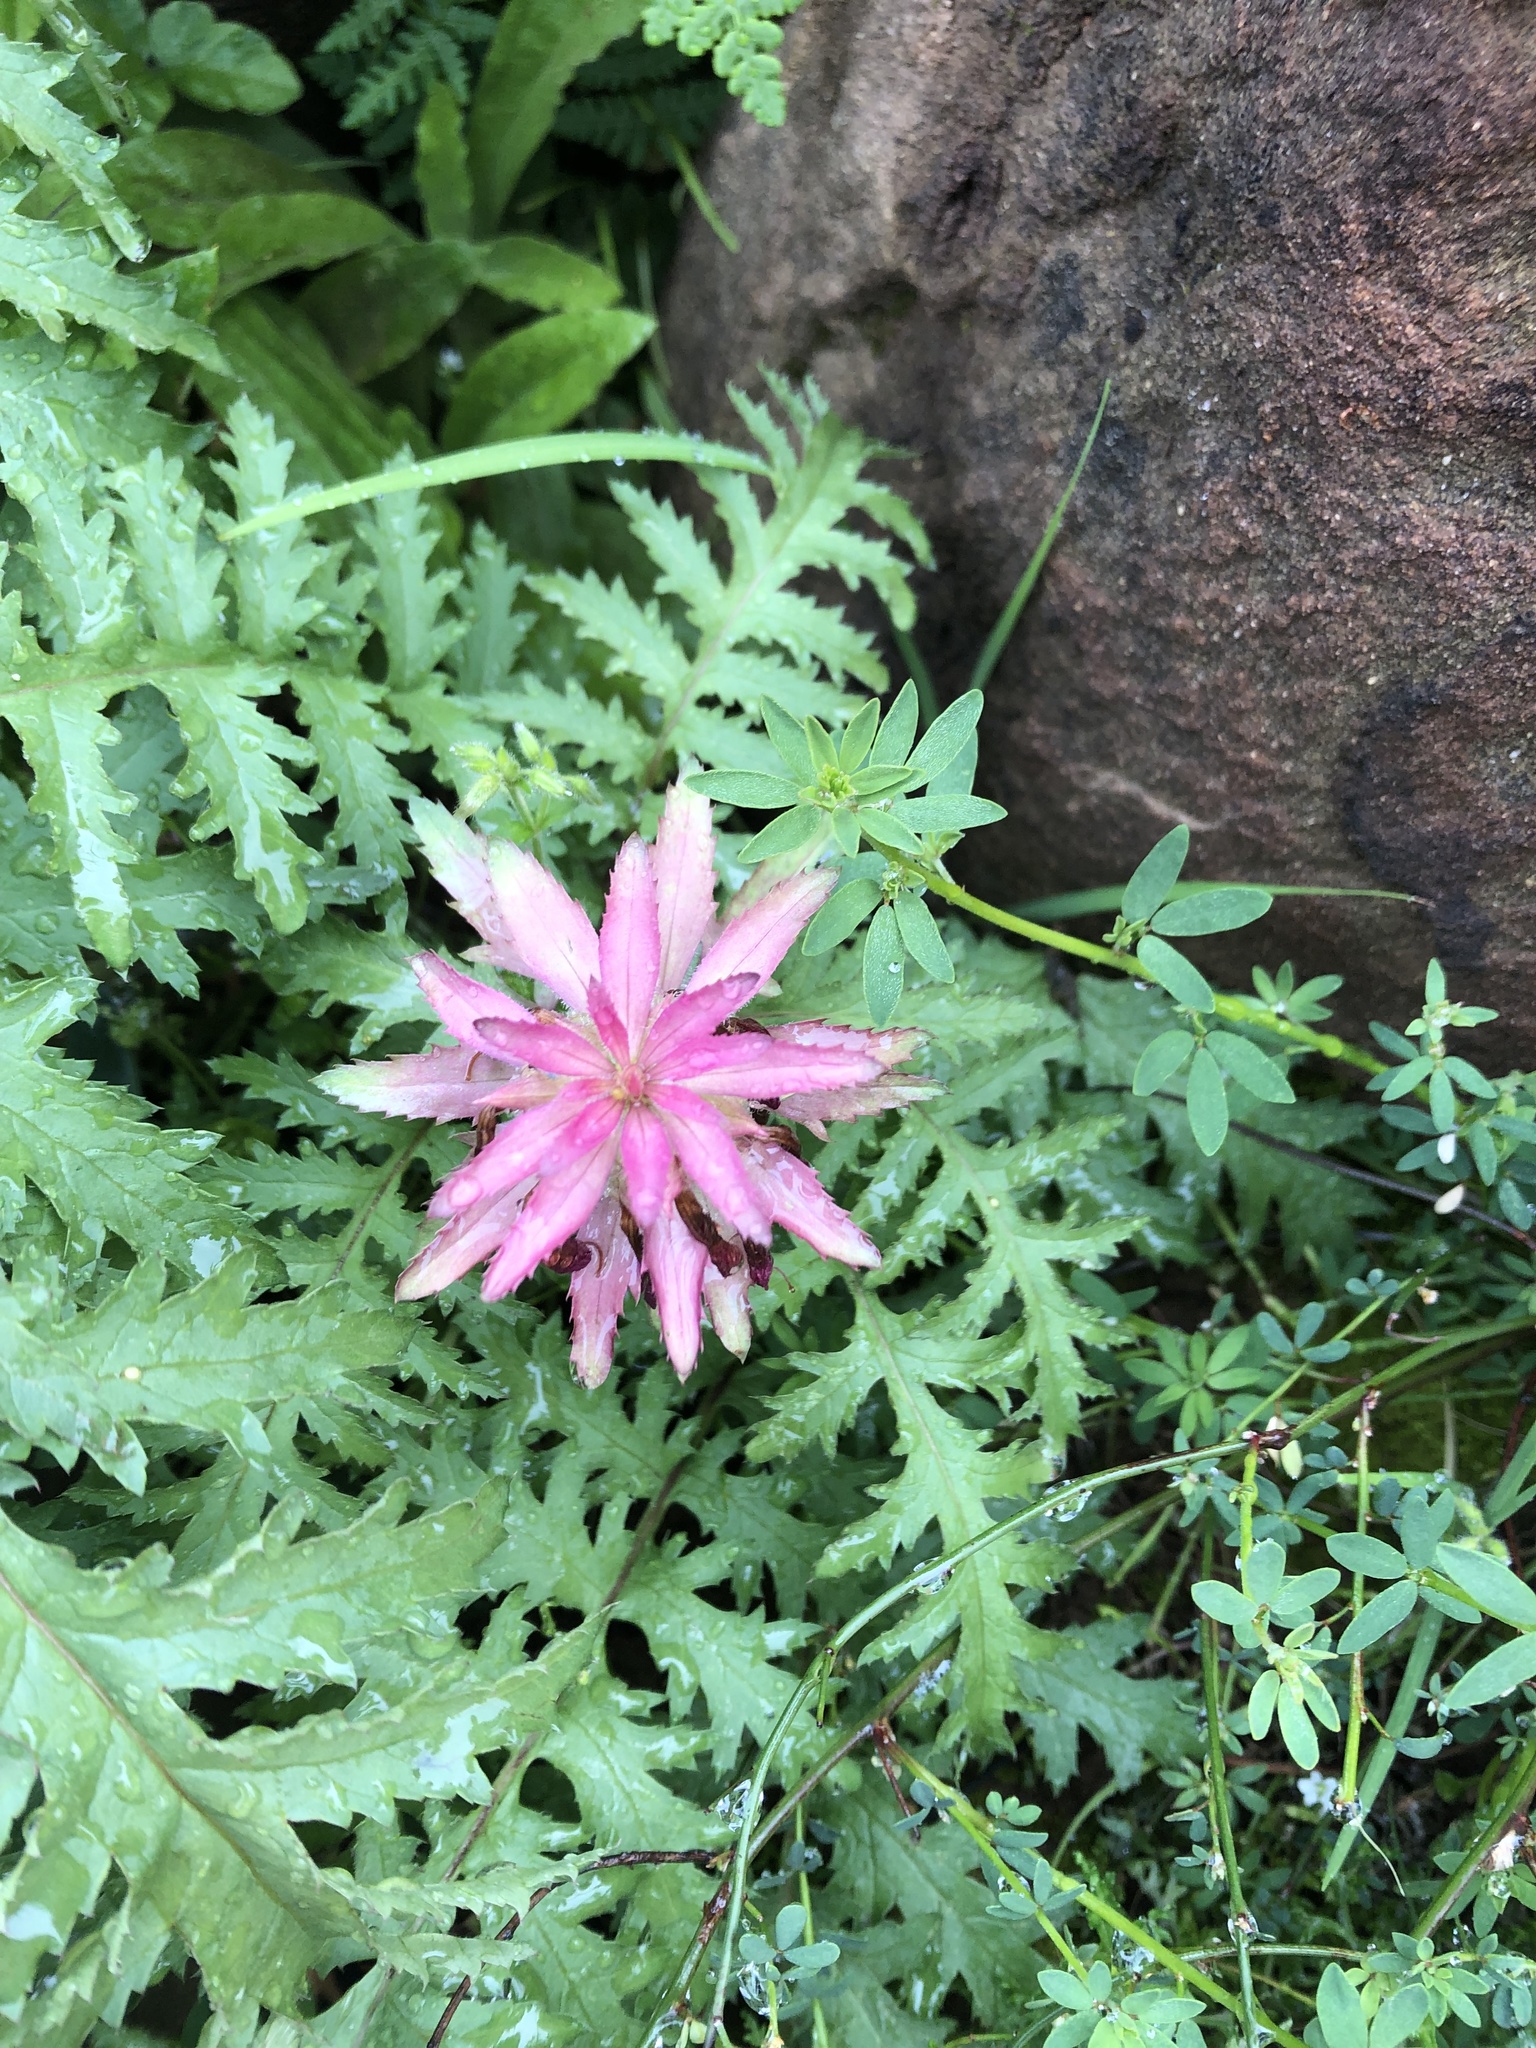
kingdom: Plantae
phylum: Tracheophyta
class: Magnoliopsida
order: Lamiales
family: Orobanchaceae
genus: Pedicularis
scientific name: Pedicularis densiflora
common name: Indian warrior
